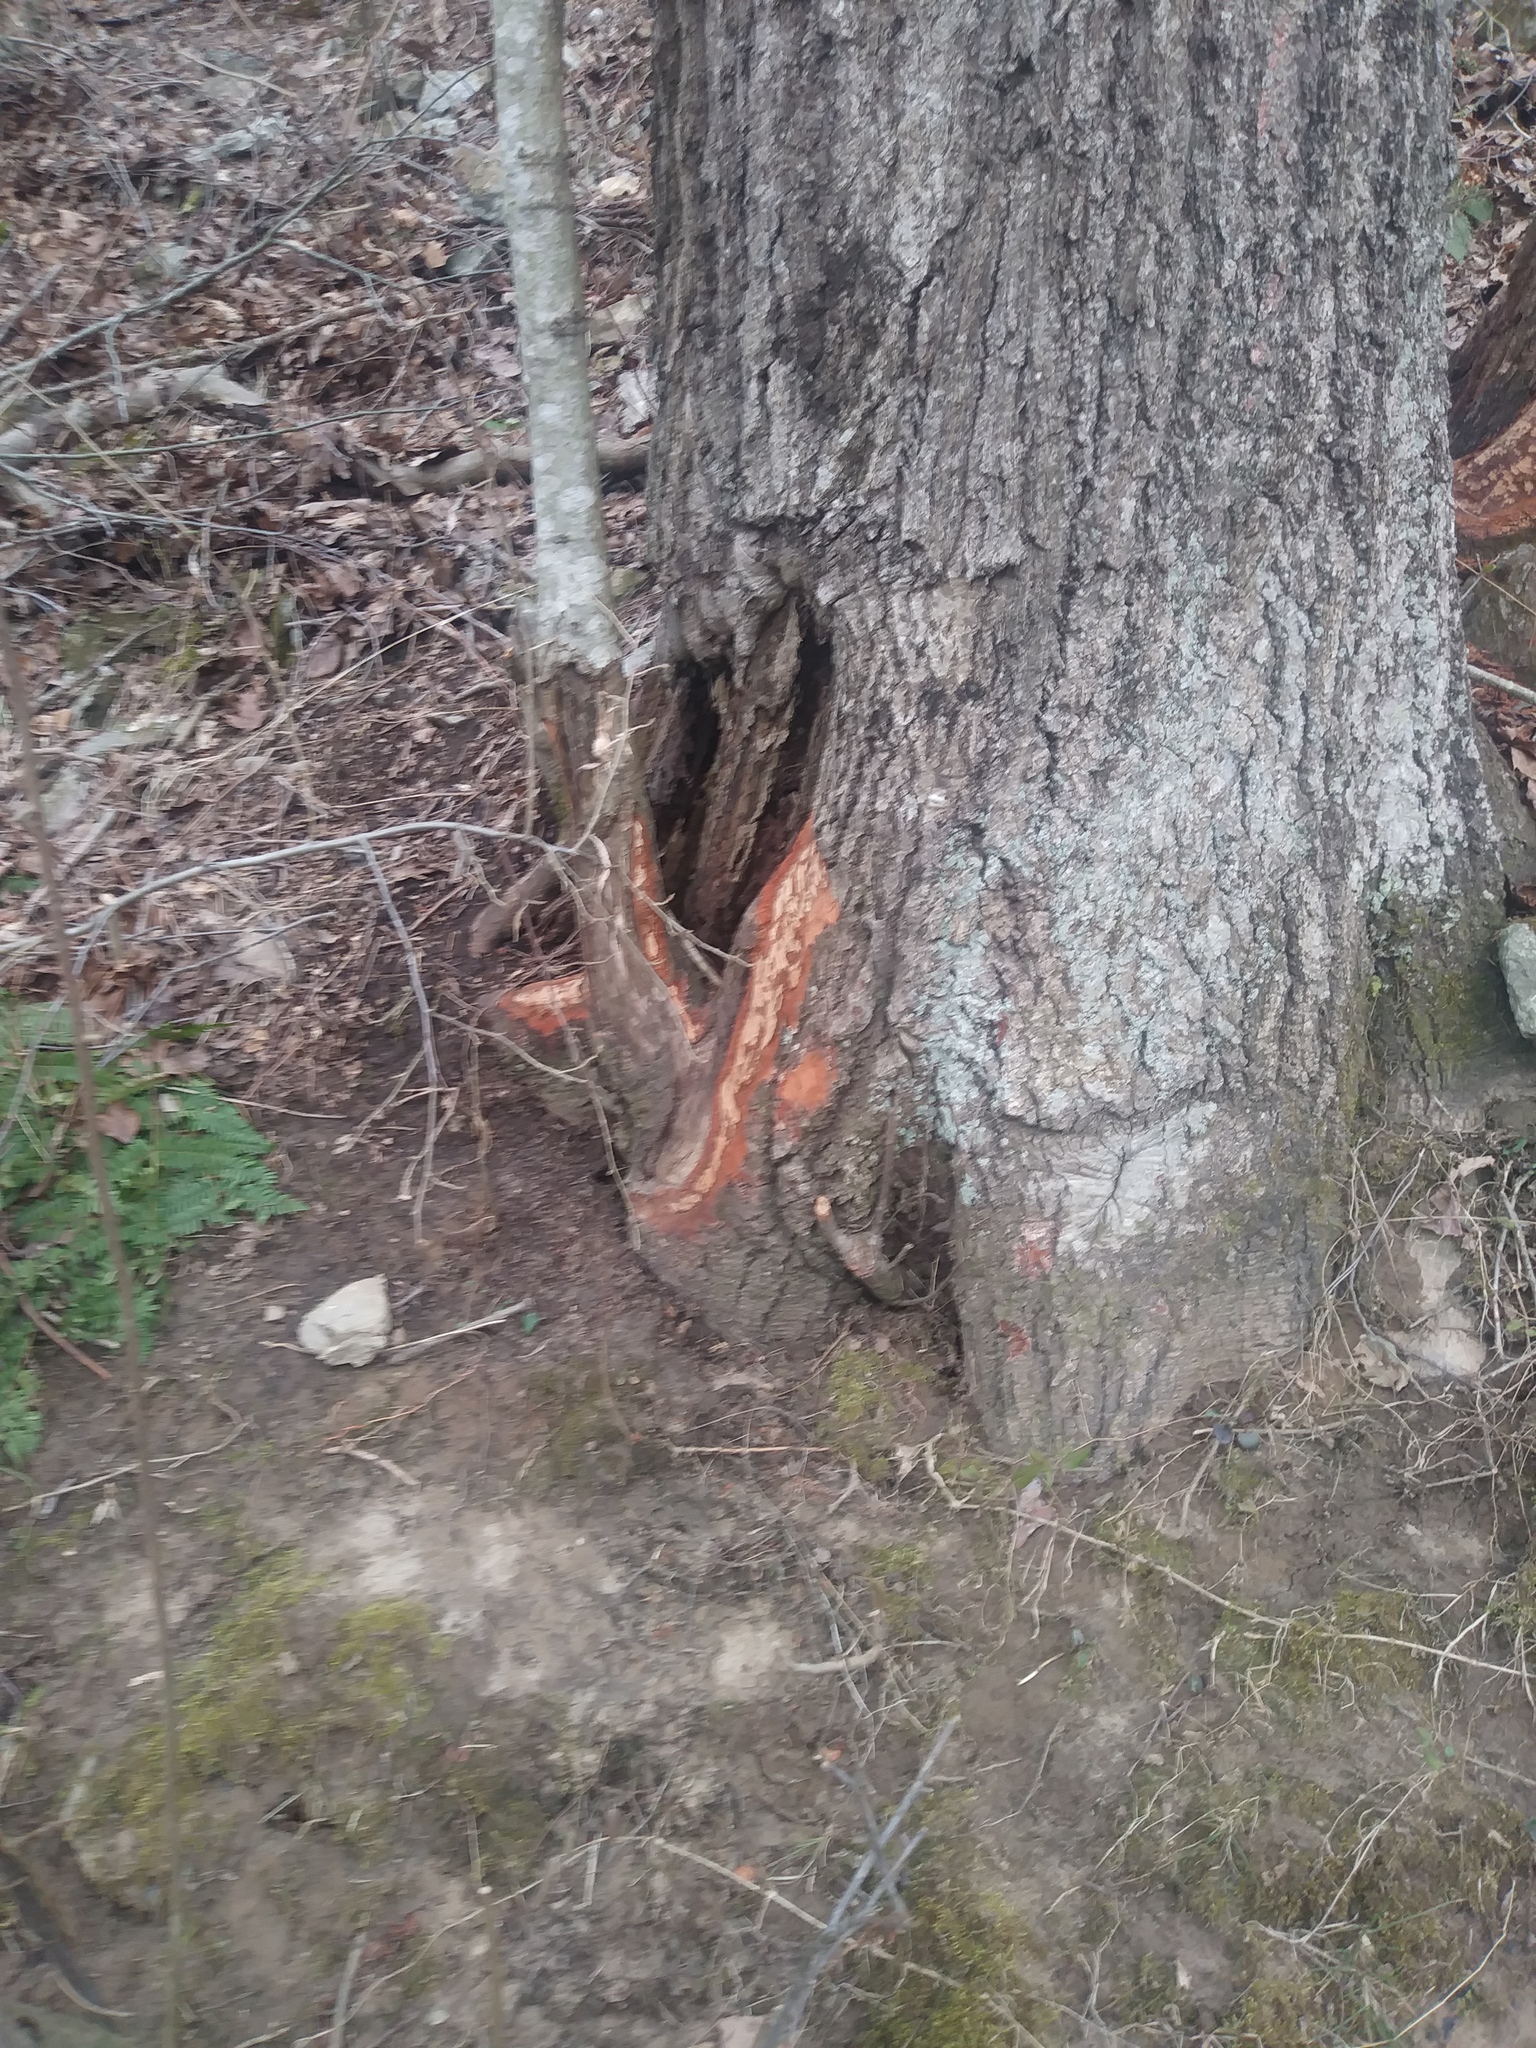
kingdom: Animalia
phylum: Chordata
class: Mammalia
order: Rodentia
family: Castoridae
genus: Castor
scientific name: Castor canadensis
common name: American beaver
